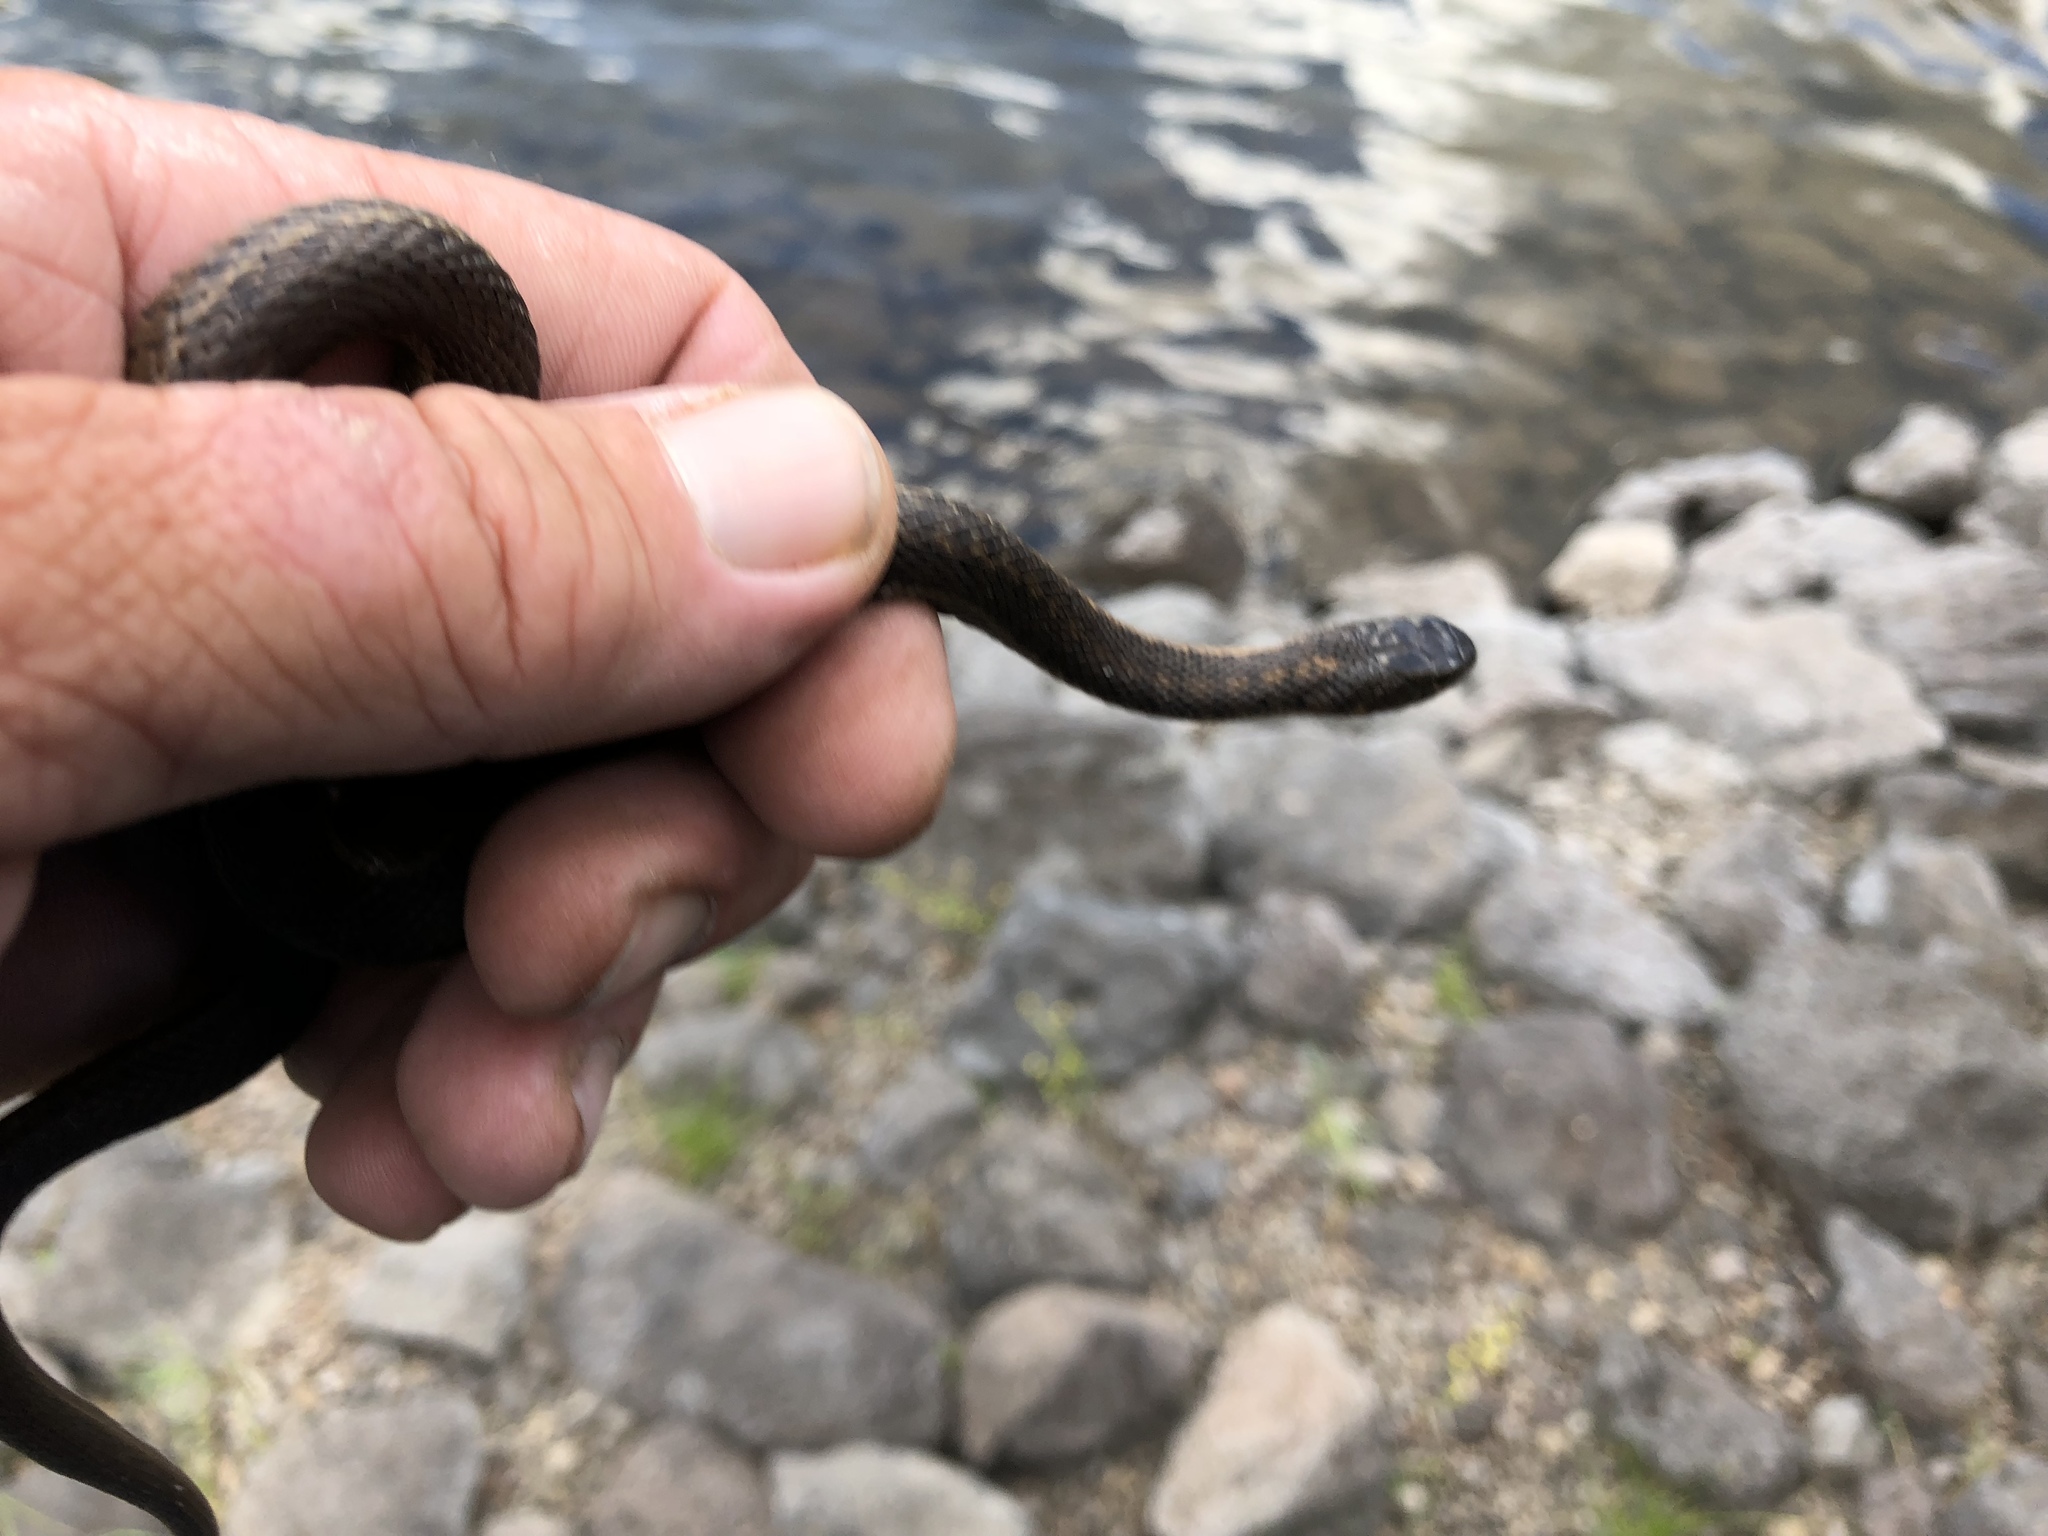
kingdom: Animalia
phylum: Chordata
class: Squamata
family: Colubridae
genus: Thamnophis
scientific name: Thamnophis elegans
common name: Western terrestrial garter snake
